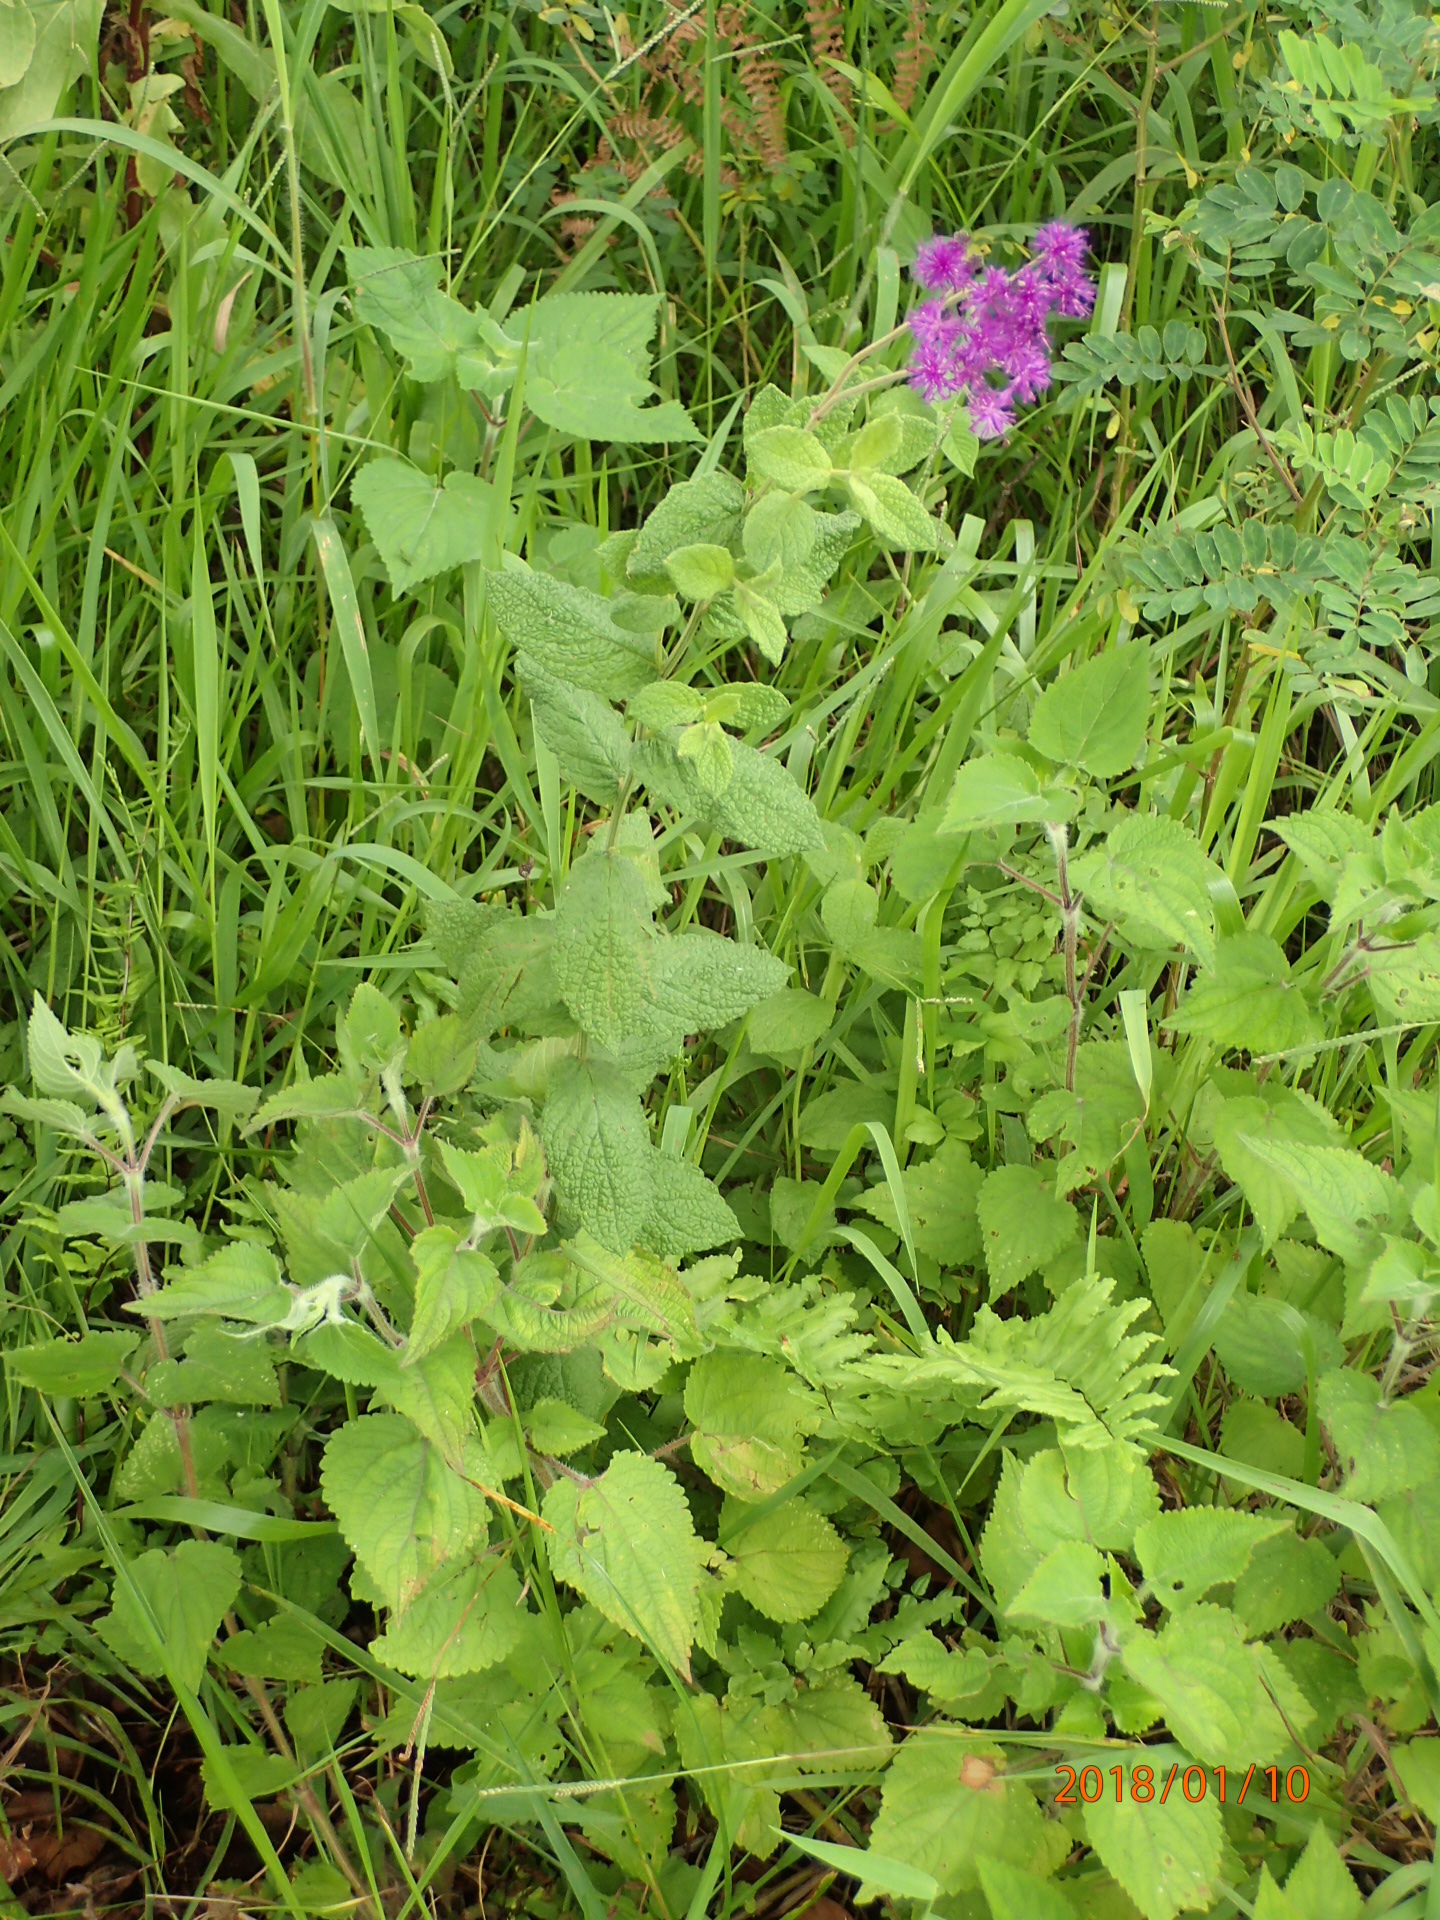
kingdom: Plantae
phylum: Tracheophyta
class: Magnoliopsida
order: Asterales
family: Asteraceae
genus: Hilliardiella
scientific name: Hilliardiella hirsuta
